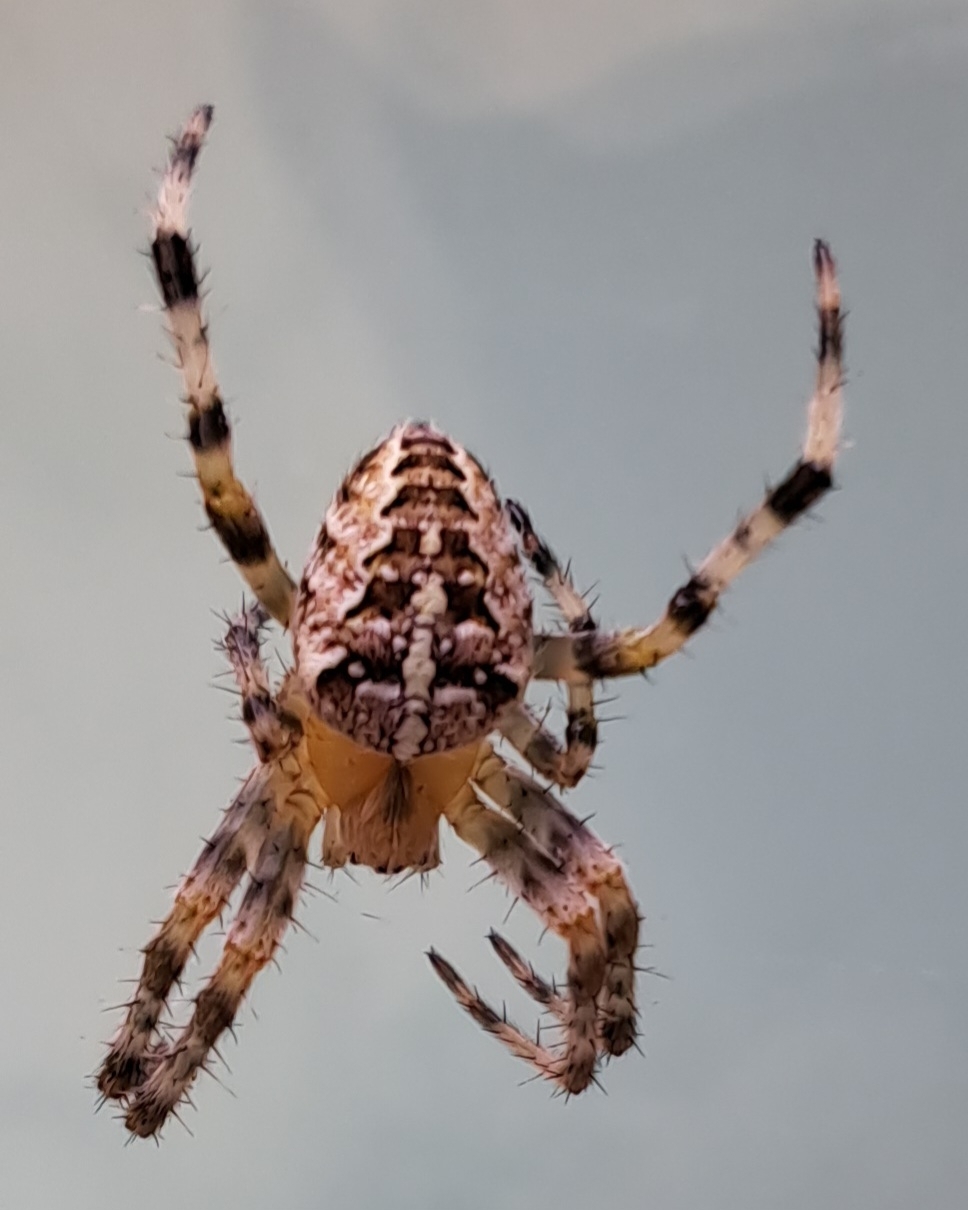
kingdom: Animalia
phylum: Arthropoda
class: Arachnida
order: Araneae
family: Araneidae
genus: Araneus
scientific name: Araneus diadematus
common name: Cross orbweaver
